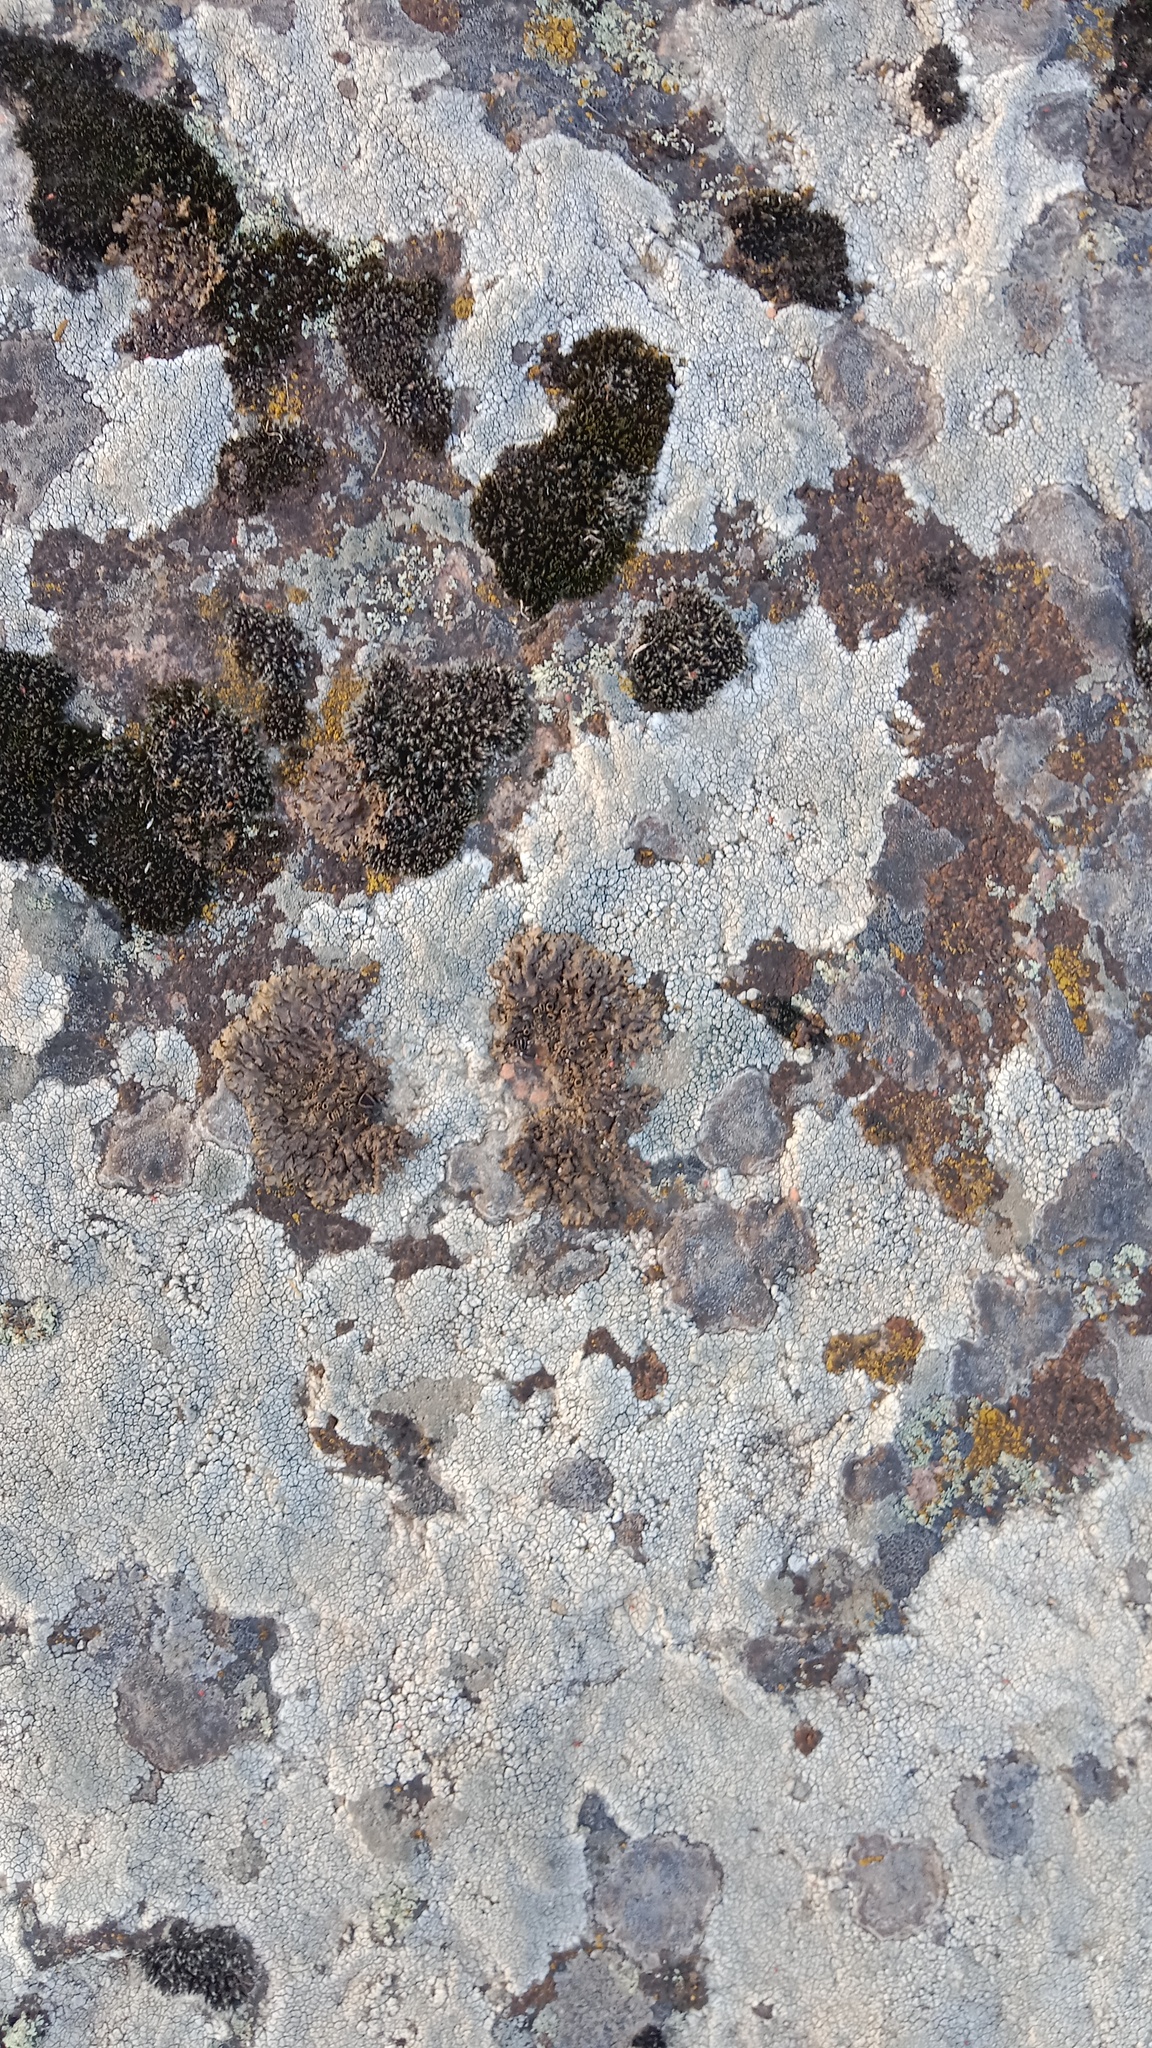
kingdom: Fungi
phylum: Ascomycota
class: Lecanoromycetes
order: Pertusariales
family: Megasporaceae
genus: Aspiciliella
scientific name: Aspiciliella intermutans
